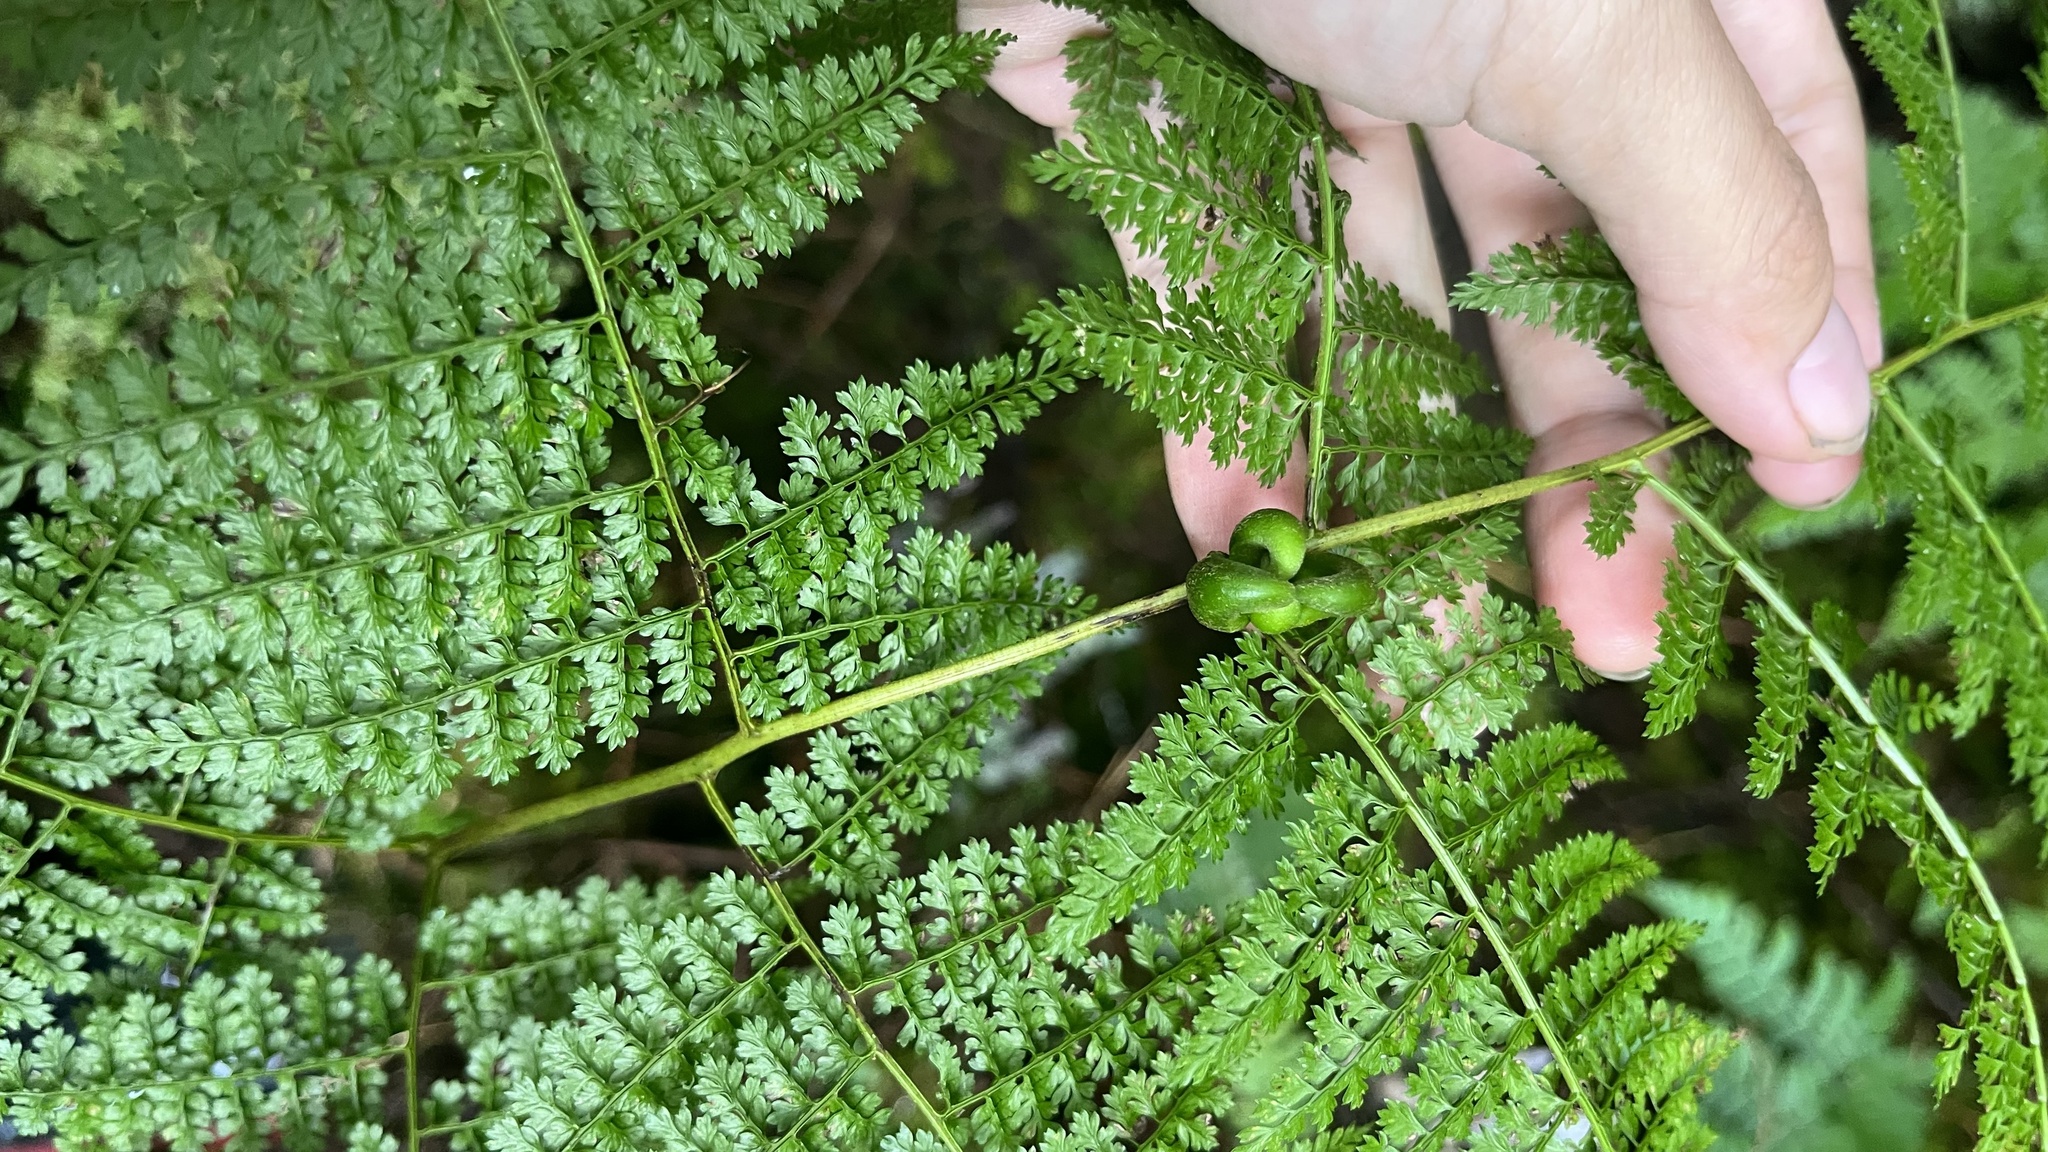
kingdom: Plantae
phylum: Tracheophyta
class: Polypodiopsida
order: Polypodiales
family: Dennstaedtiaceae
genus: Monachosorum
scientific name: Monachosorum henryi
